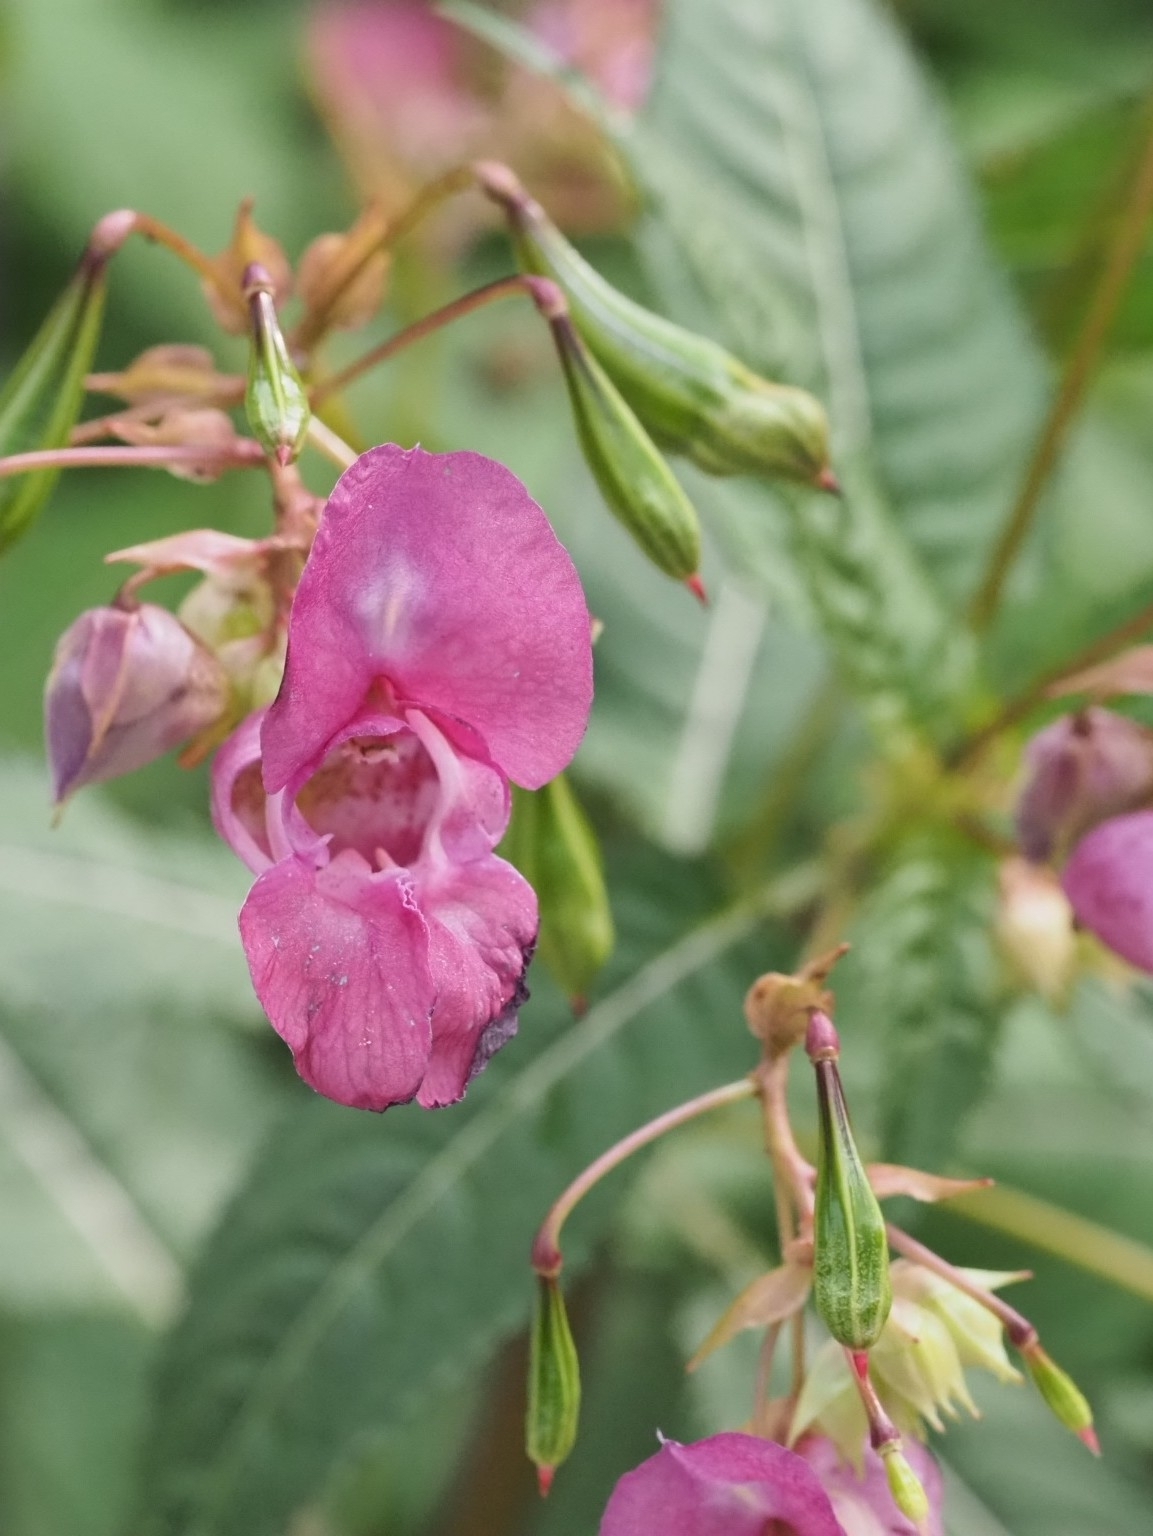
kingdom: Plantae
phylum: Tracheophyta
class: Magnoliopsida
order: Ericales
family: Balsaminaceae
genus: Impatiens
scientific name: Impatiens glandulifera
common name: Himalayan balsam
